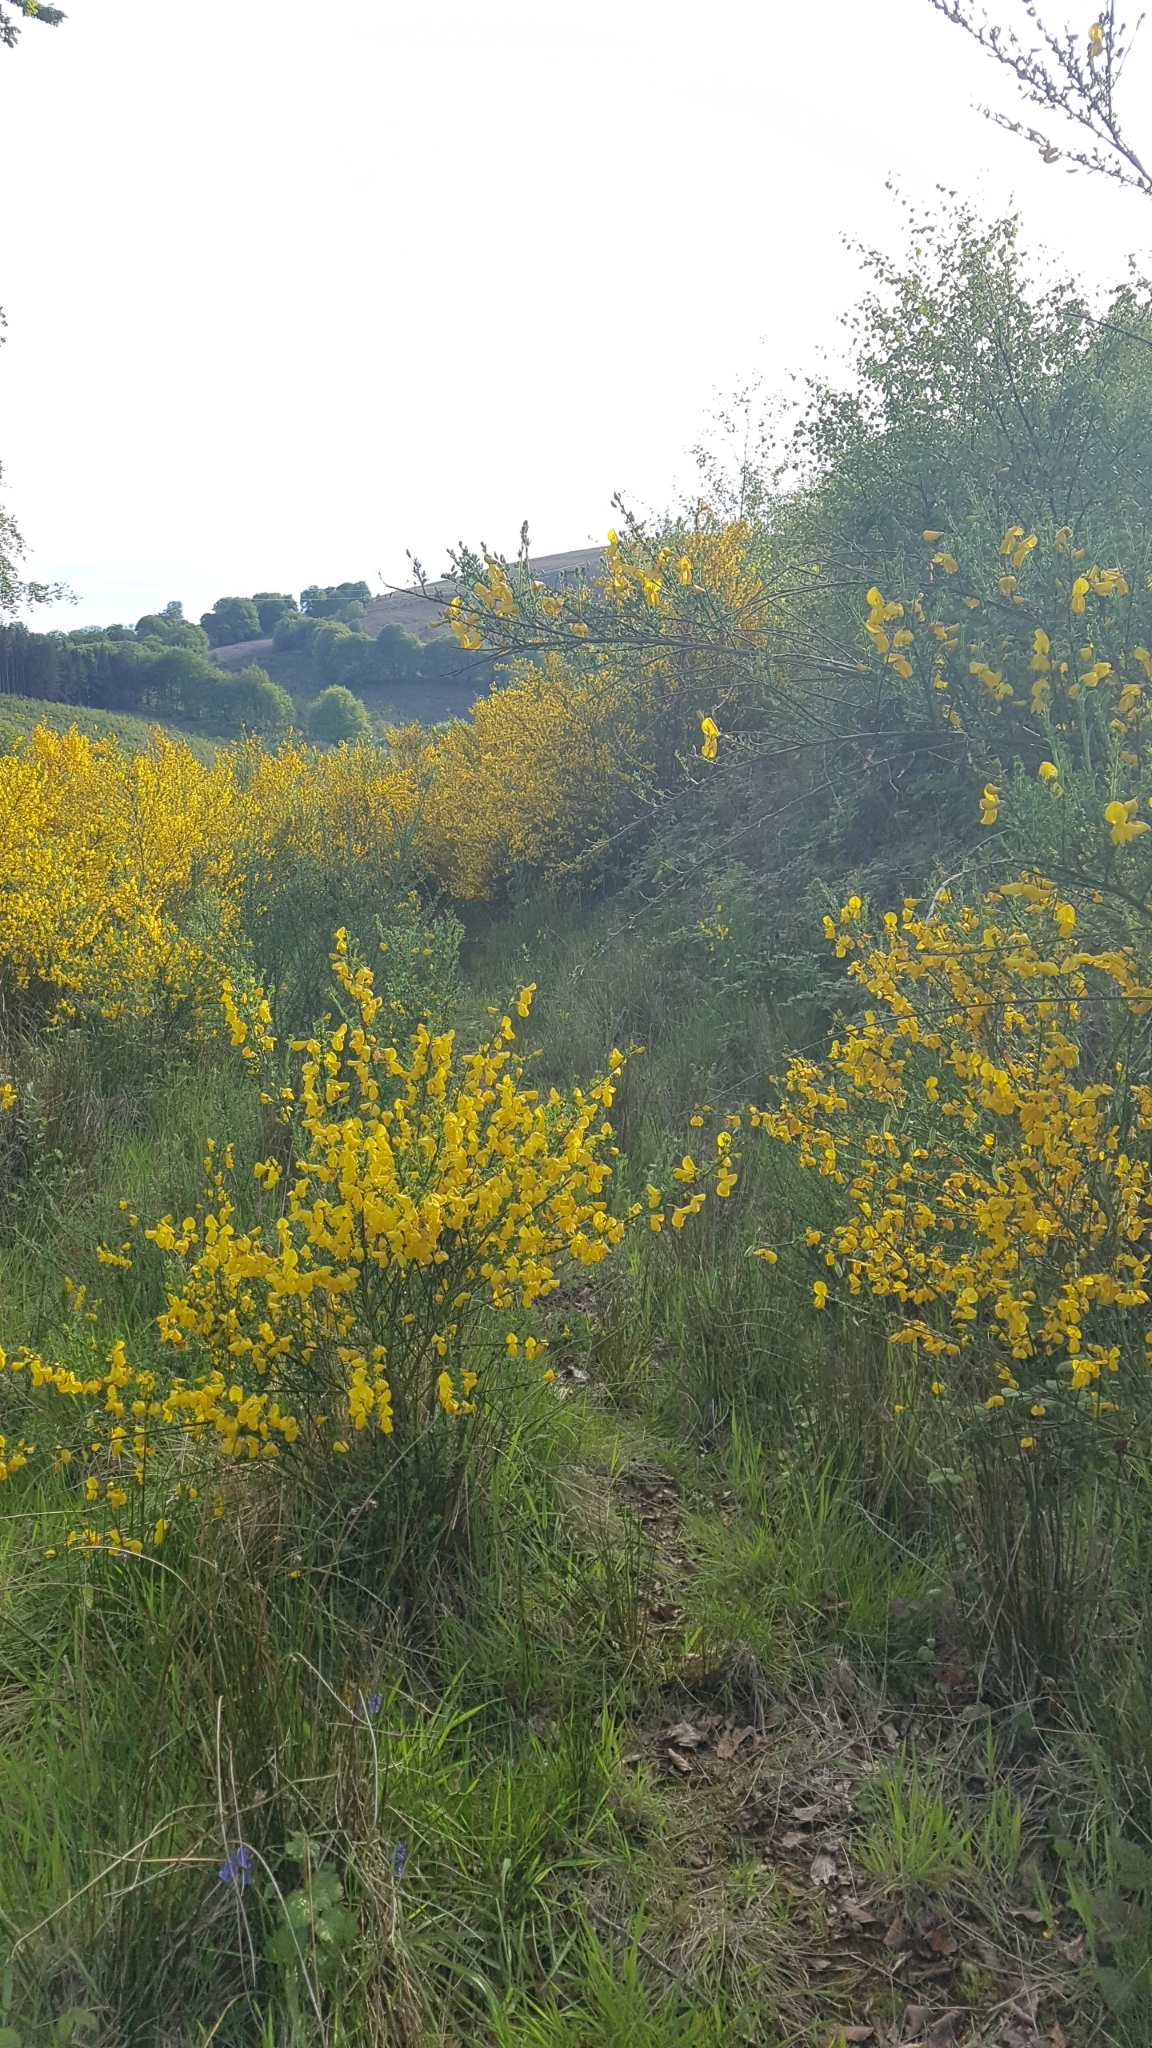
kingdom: Plantae
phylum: Tracheophyta
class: Magnoliopsida
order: Fabales
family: Fabaceae
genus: Cytisus
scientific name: Cytisus scoparius
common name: Scotch broom
